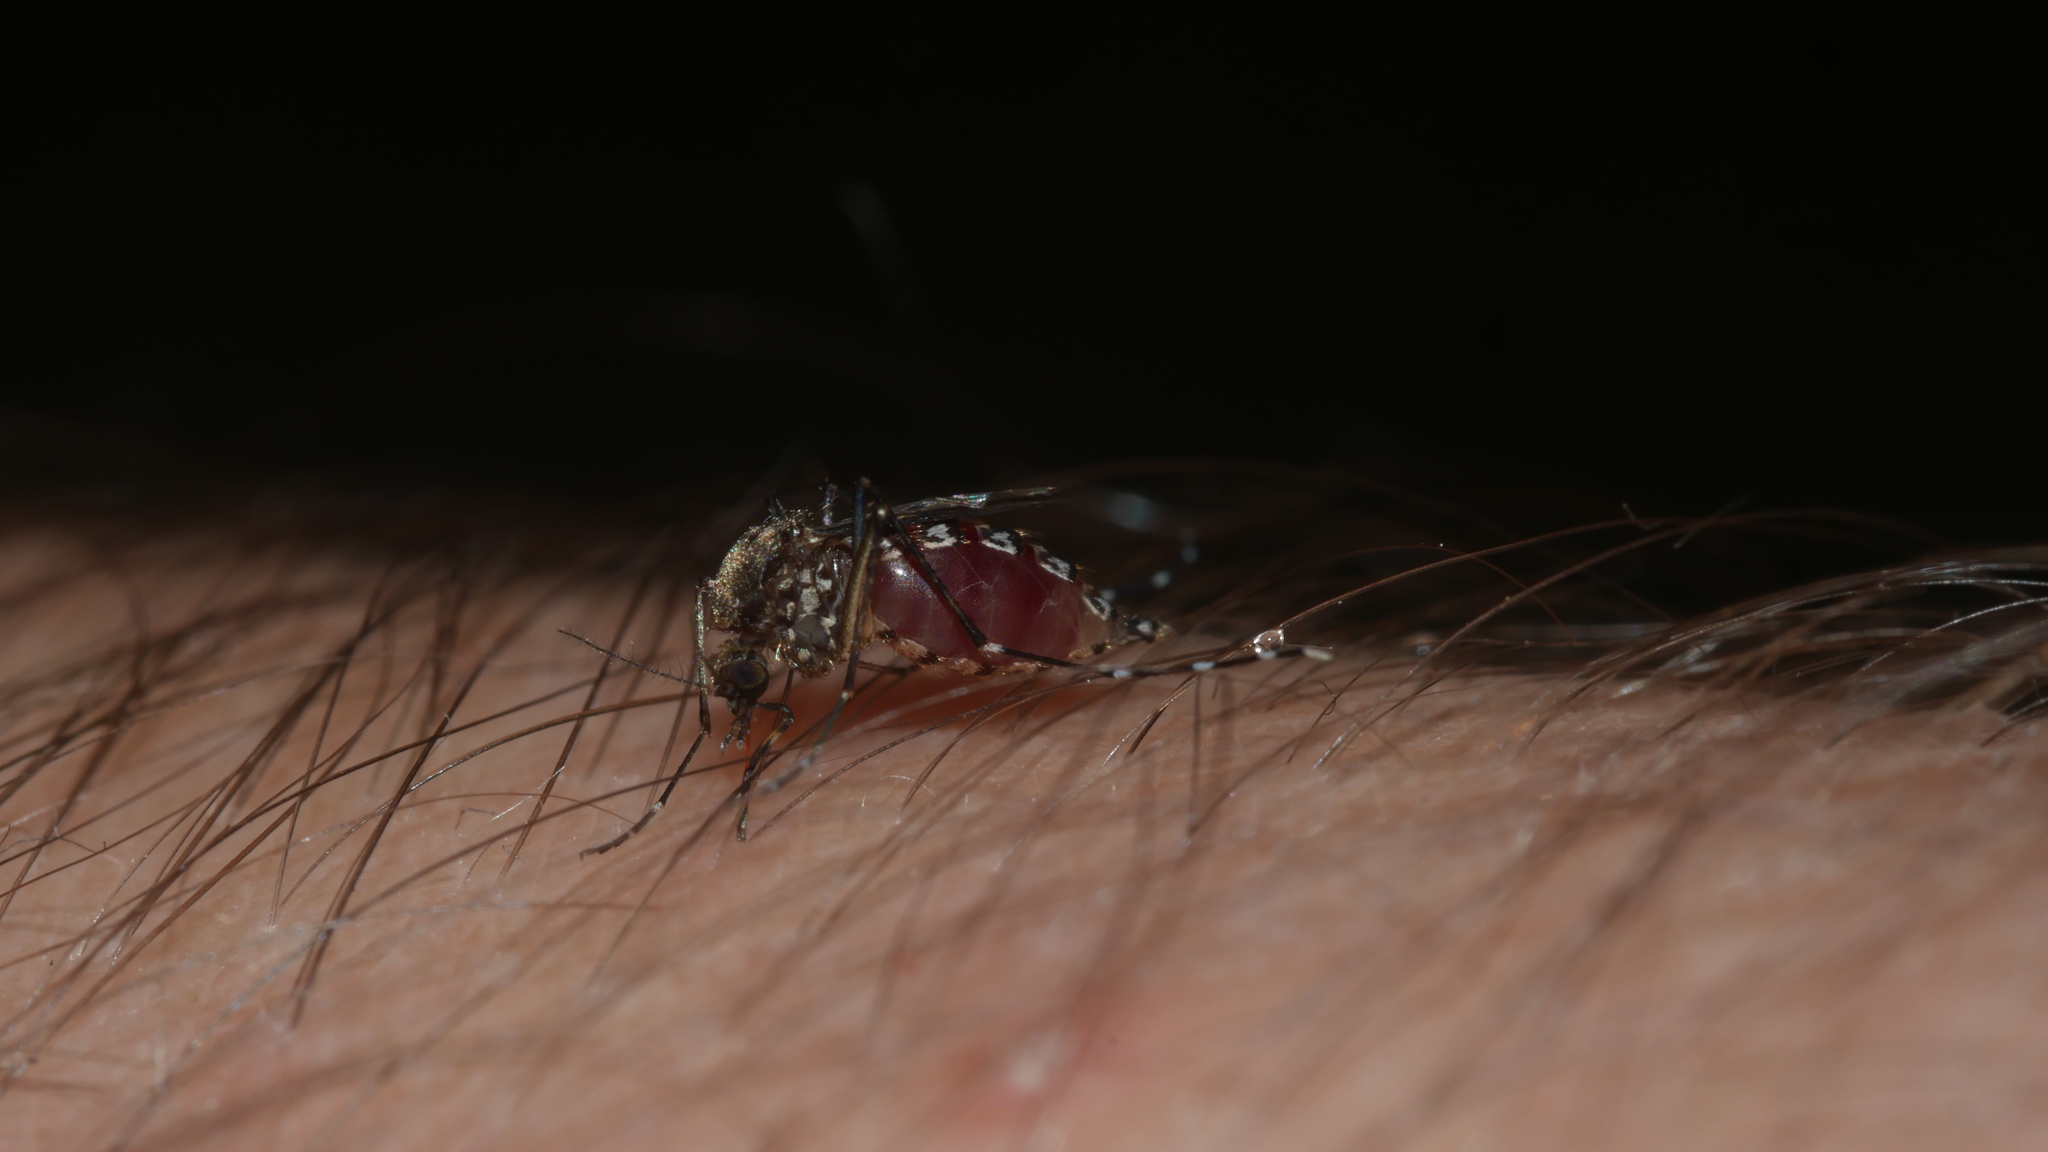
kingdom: Animalia
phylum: Arthropoda
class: Insecta
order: Diptera
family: Culicidae
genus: Aedes
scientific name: Aedes taeniorhynchus
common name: Black salt marsh mosquito
